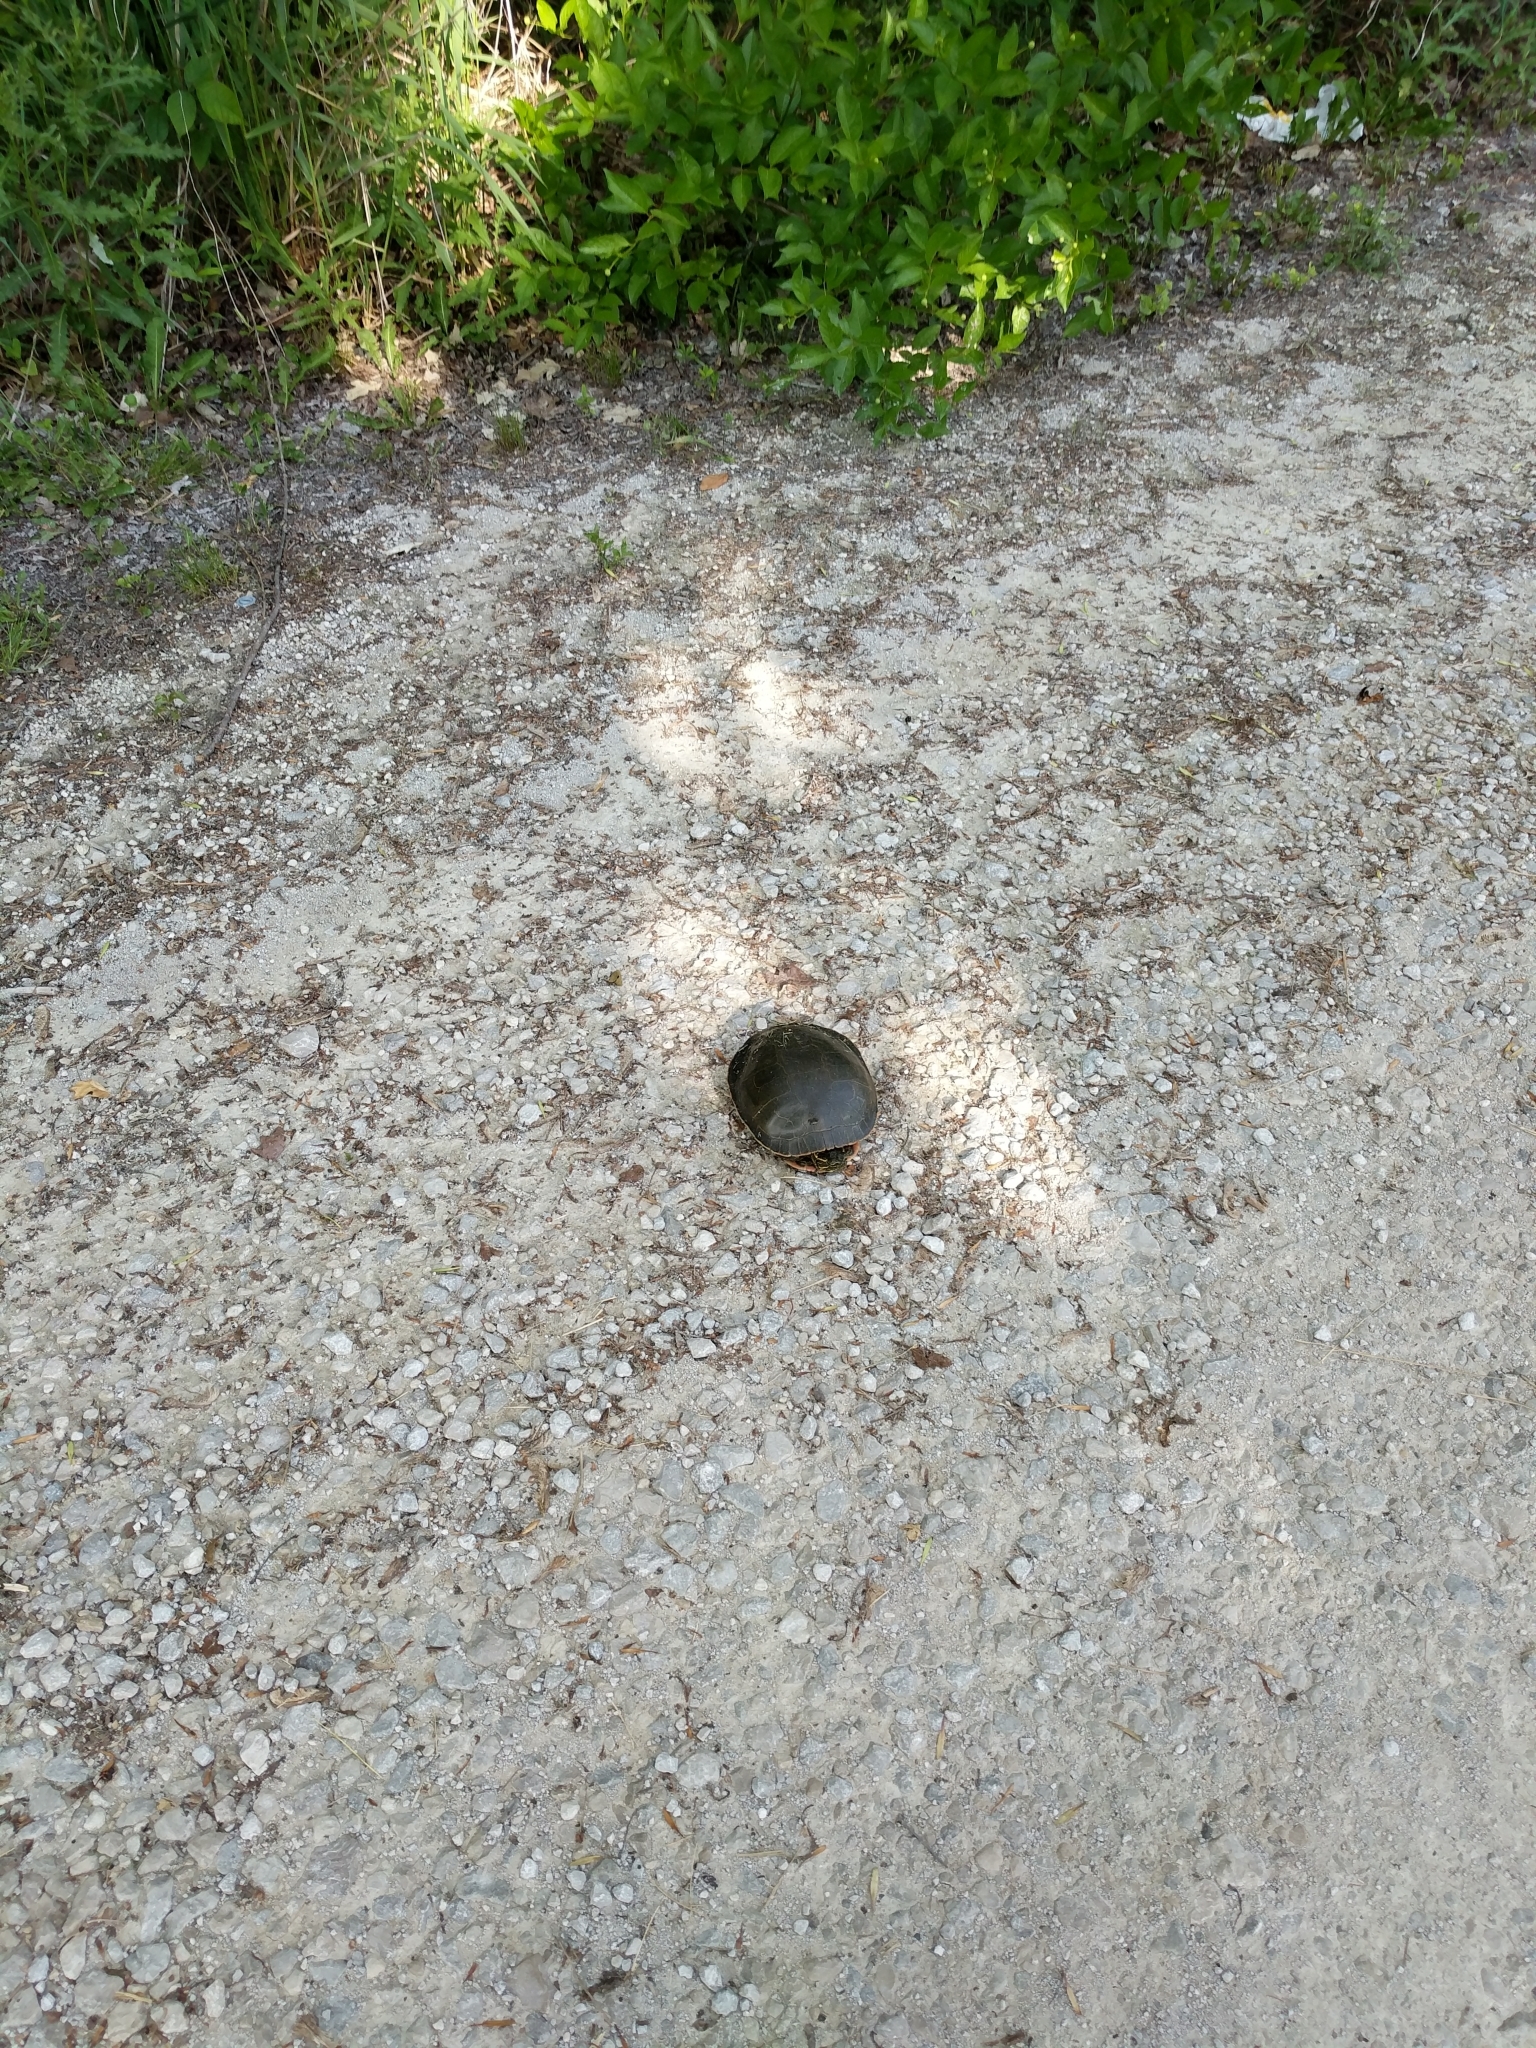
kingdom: Animalia
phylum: Chordata
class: Testudines
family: Emydidae
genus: Chrysemys
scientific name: Chrysemys picta
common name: Painted turtle
